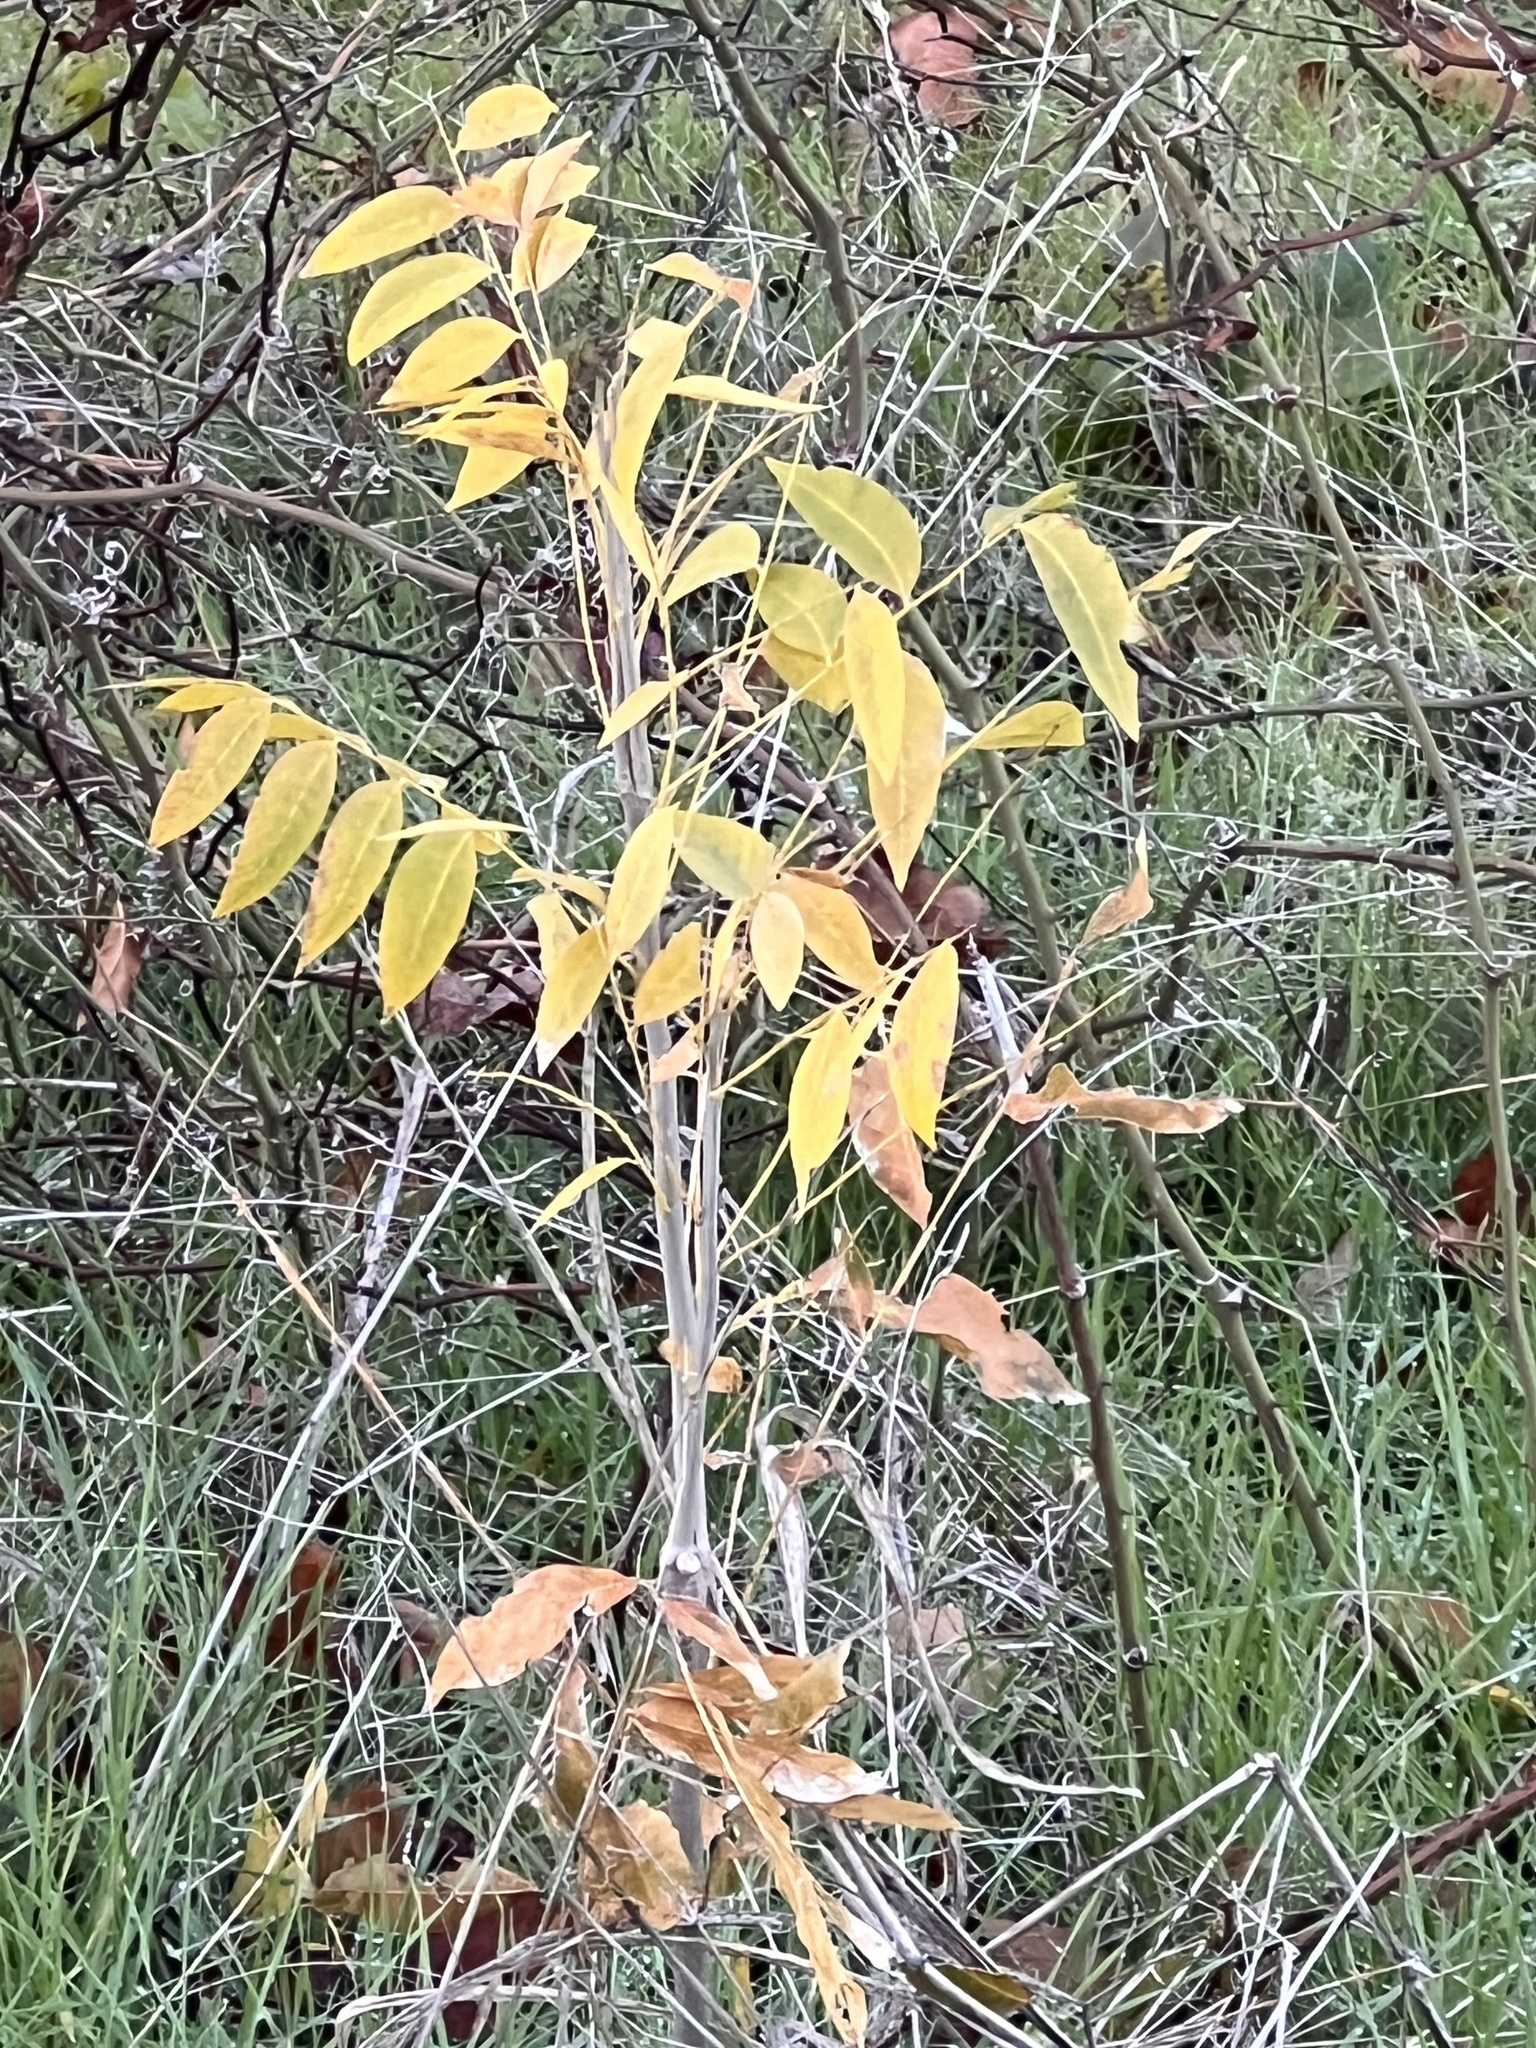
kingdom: Plantae
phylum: Tracheophyta
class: Magnoliopsida
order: Sapindales
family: Sapindaceae
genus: Sapindus
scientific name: Sapindus drummondii
